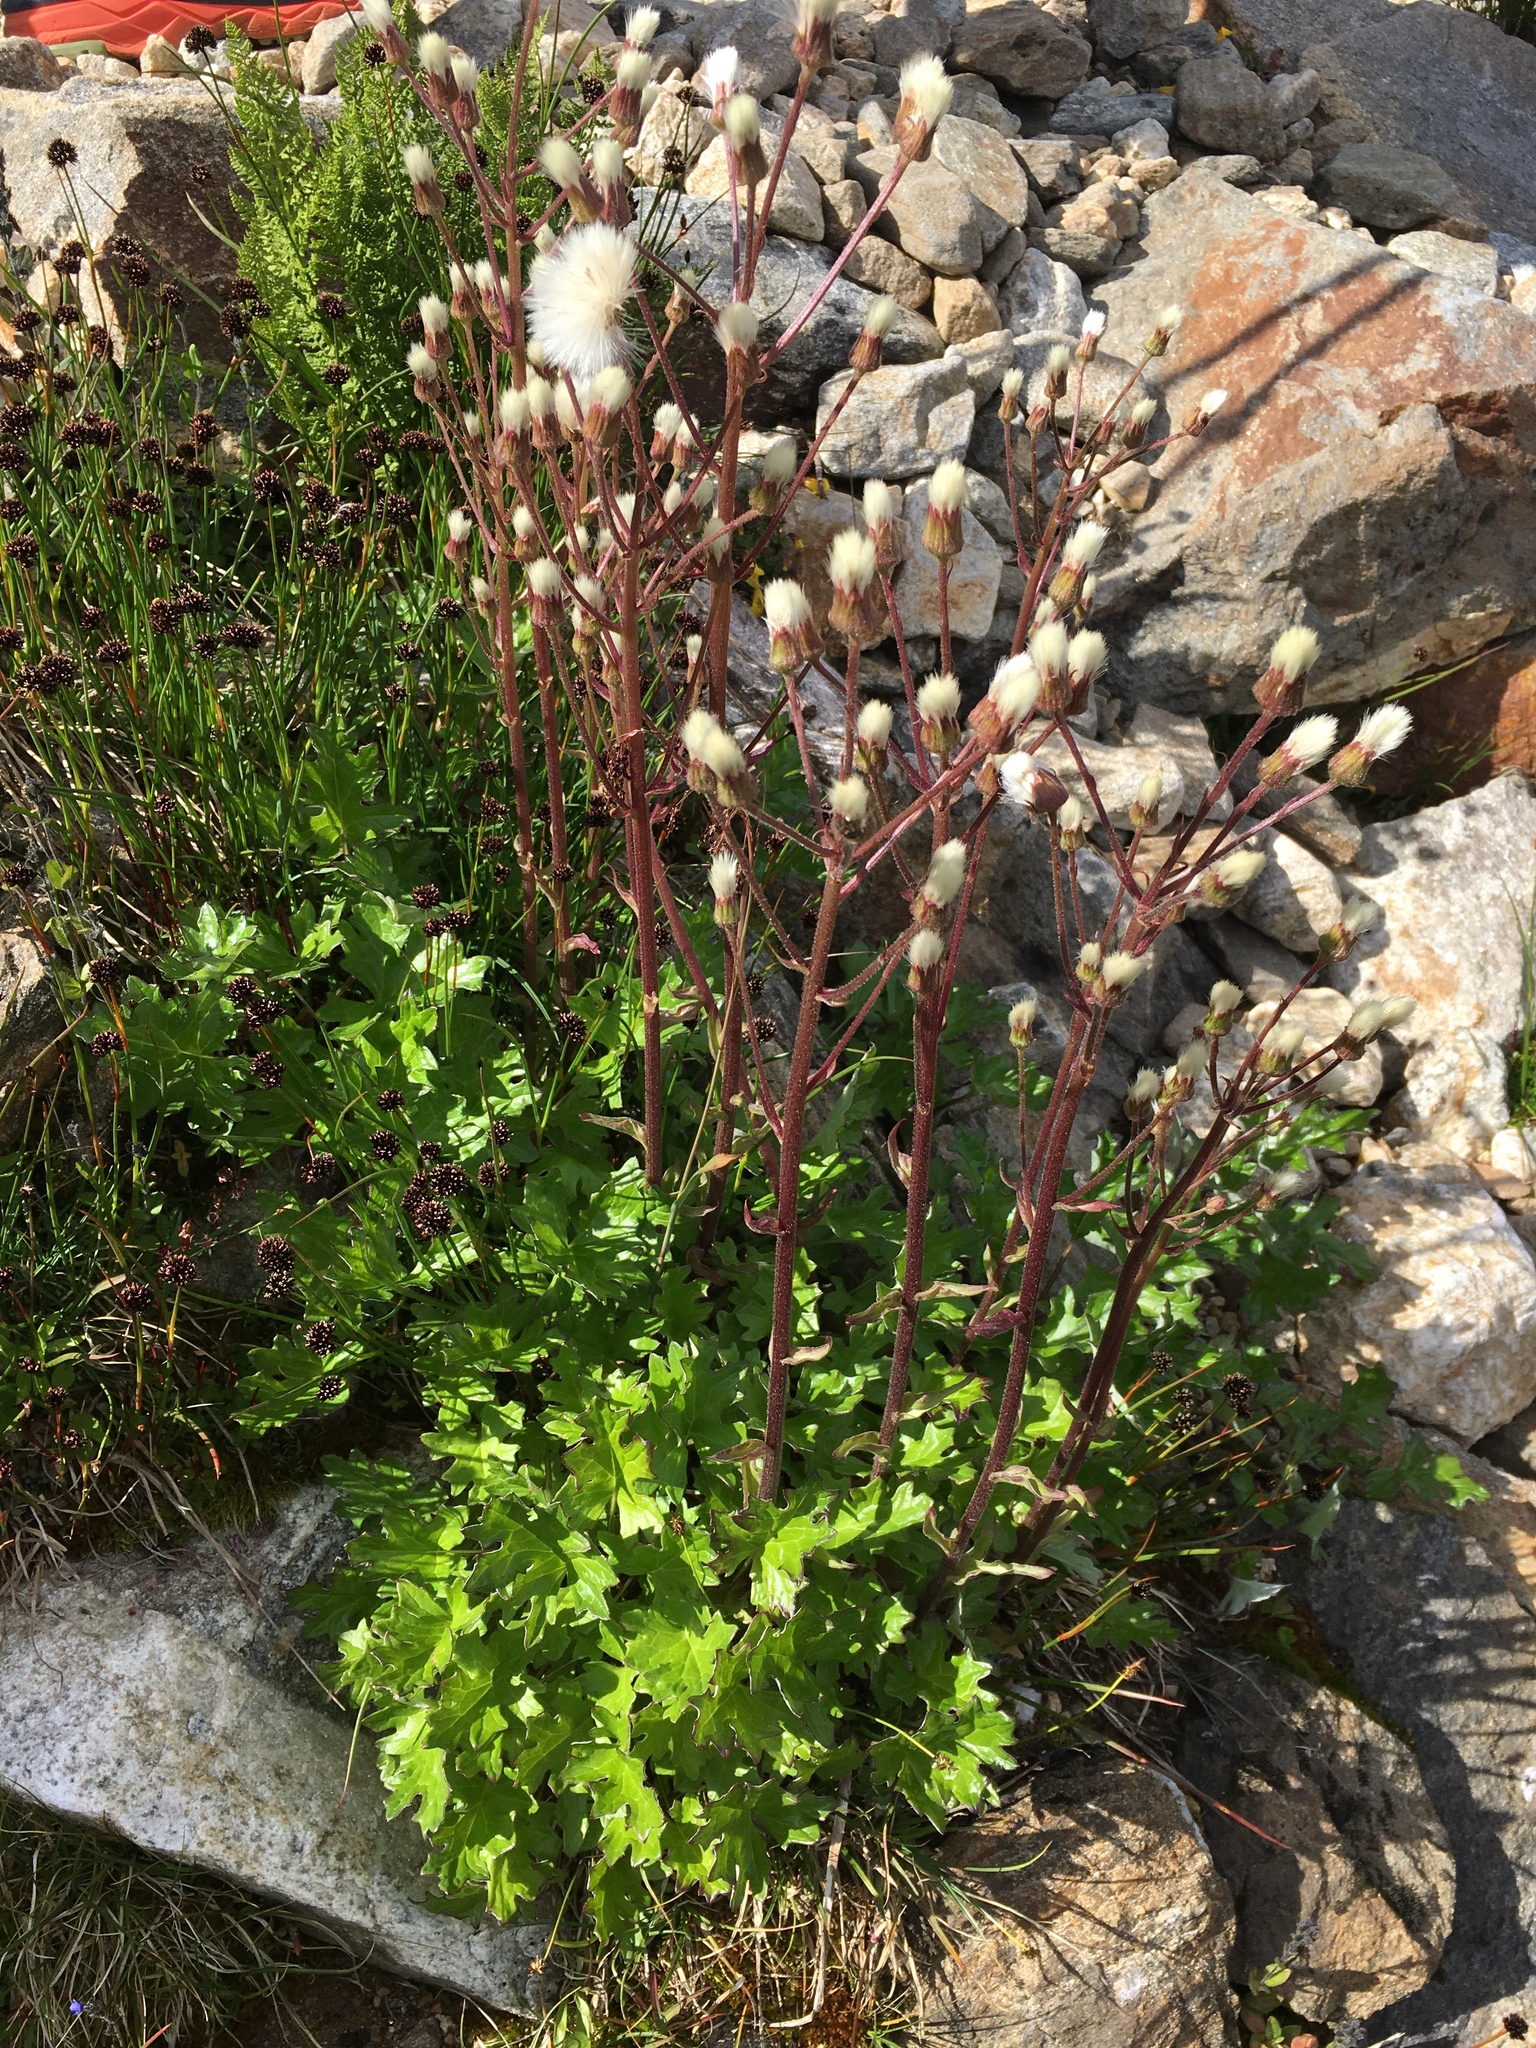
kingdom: Plantae
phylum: Tracheophyta
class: Magnoliopsida
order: Asterales
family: Asteraceae
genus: Petasites
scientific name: Petasites frigidus
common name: Arctic butterbur
